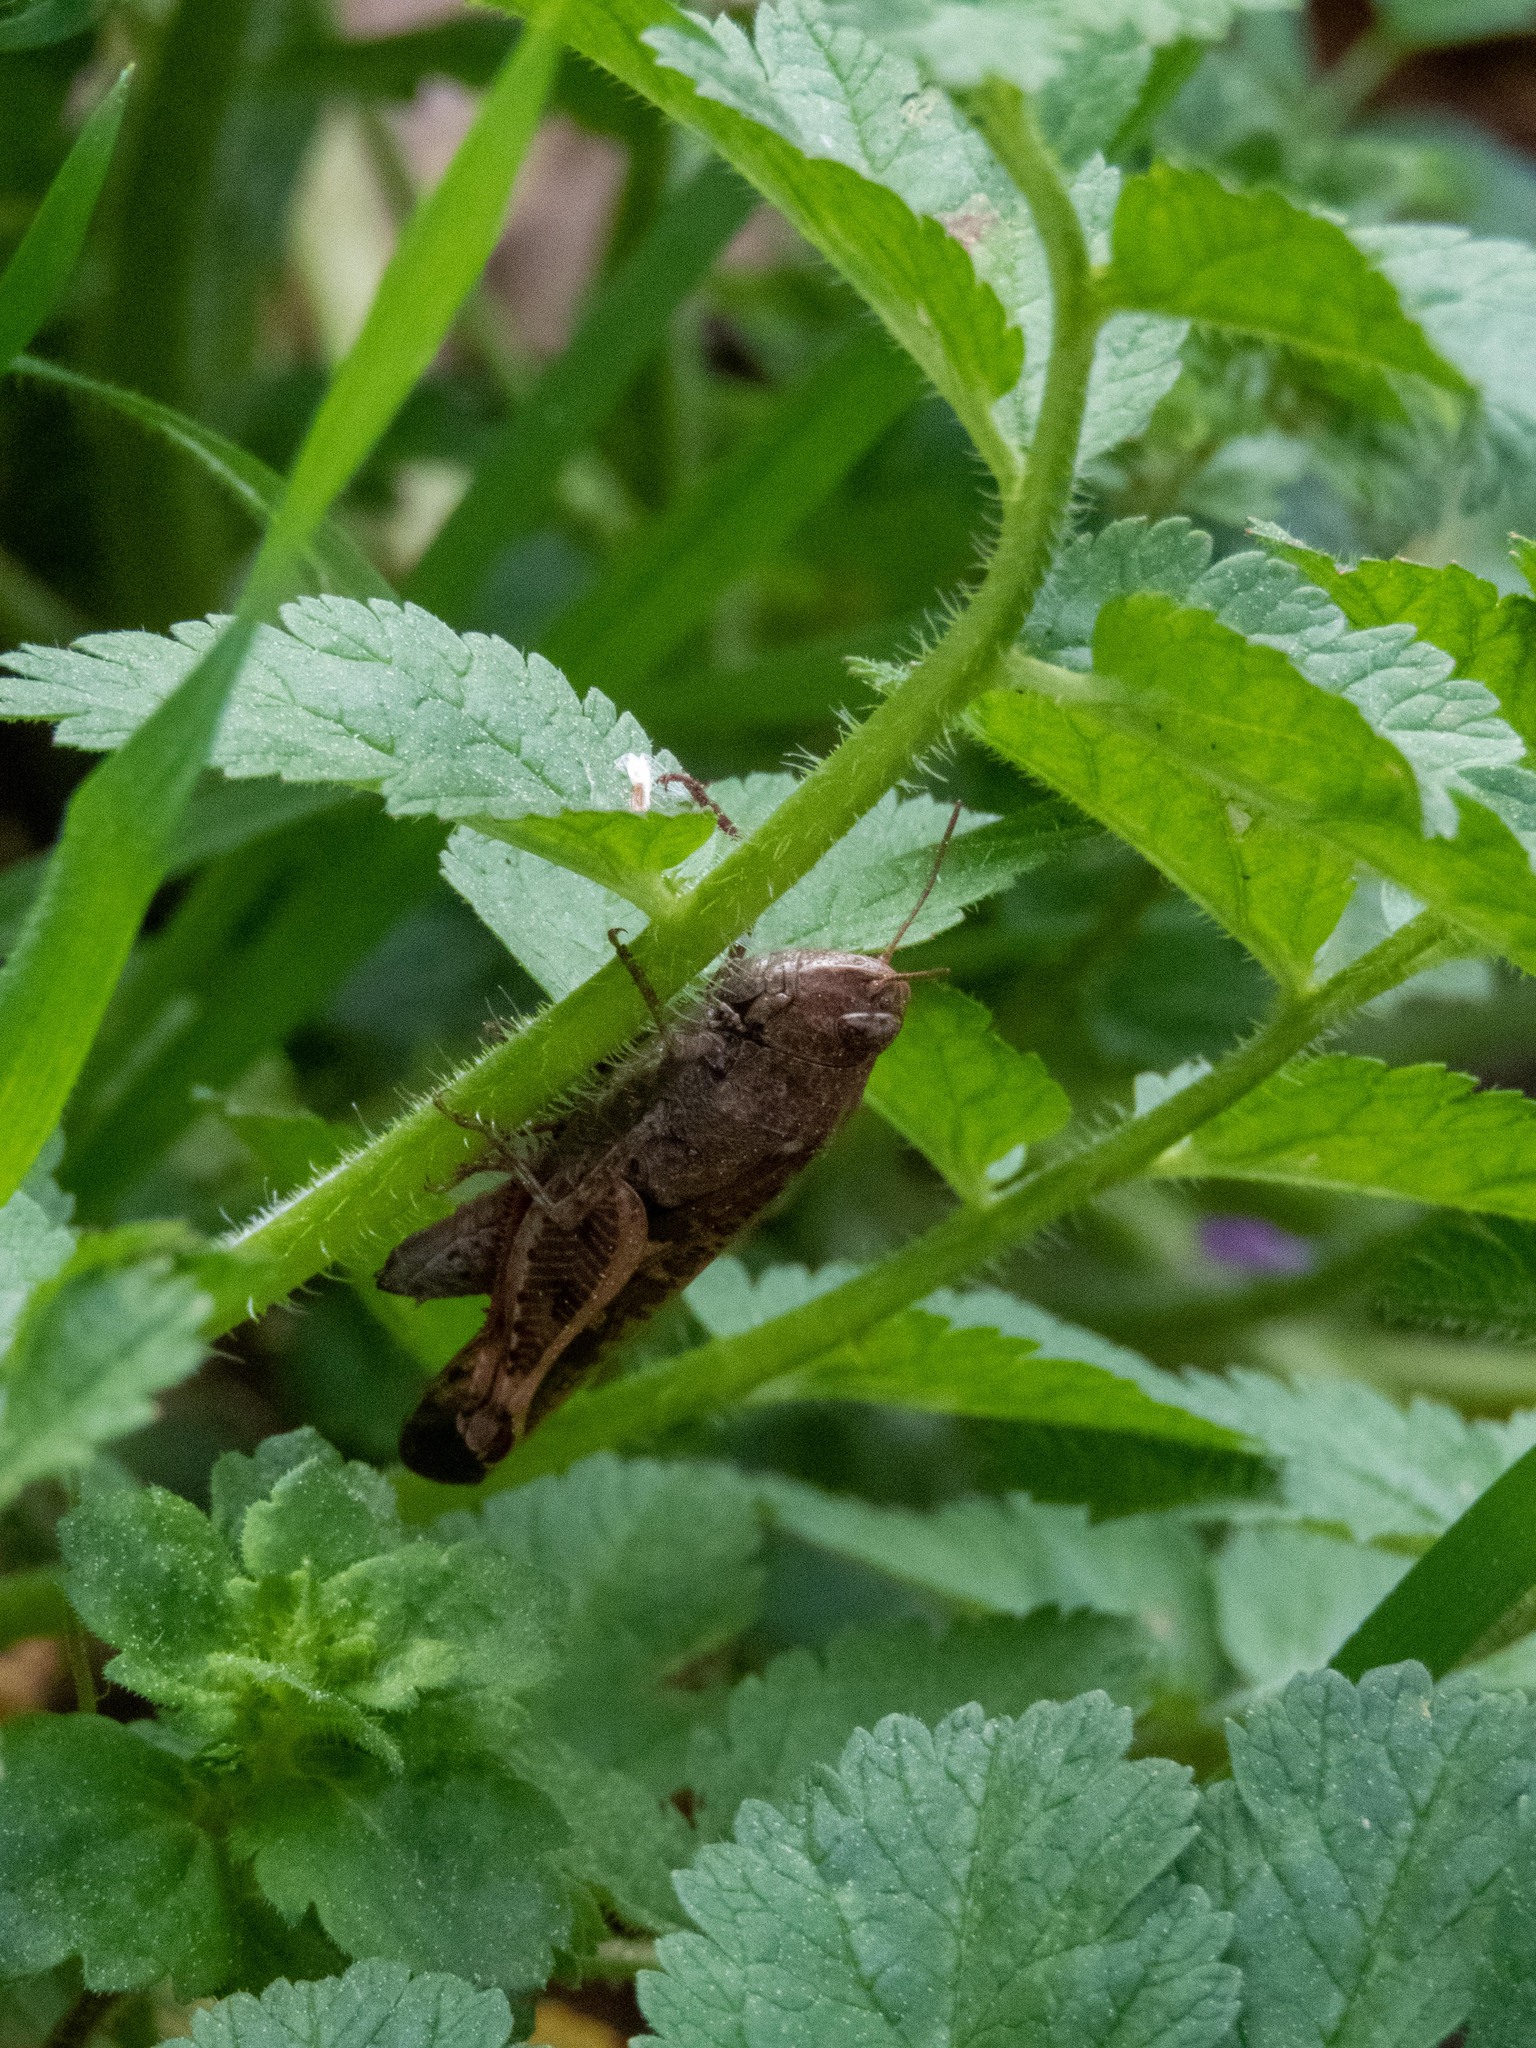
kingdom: Animalia
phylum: Arthropoda
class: Insecta
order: Orthoptera
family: Acrididae
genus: Aiolopus
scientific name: Aiolopus strepens
